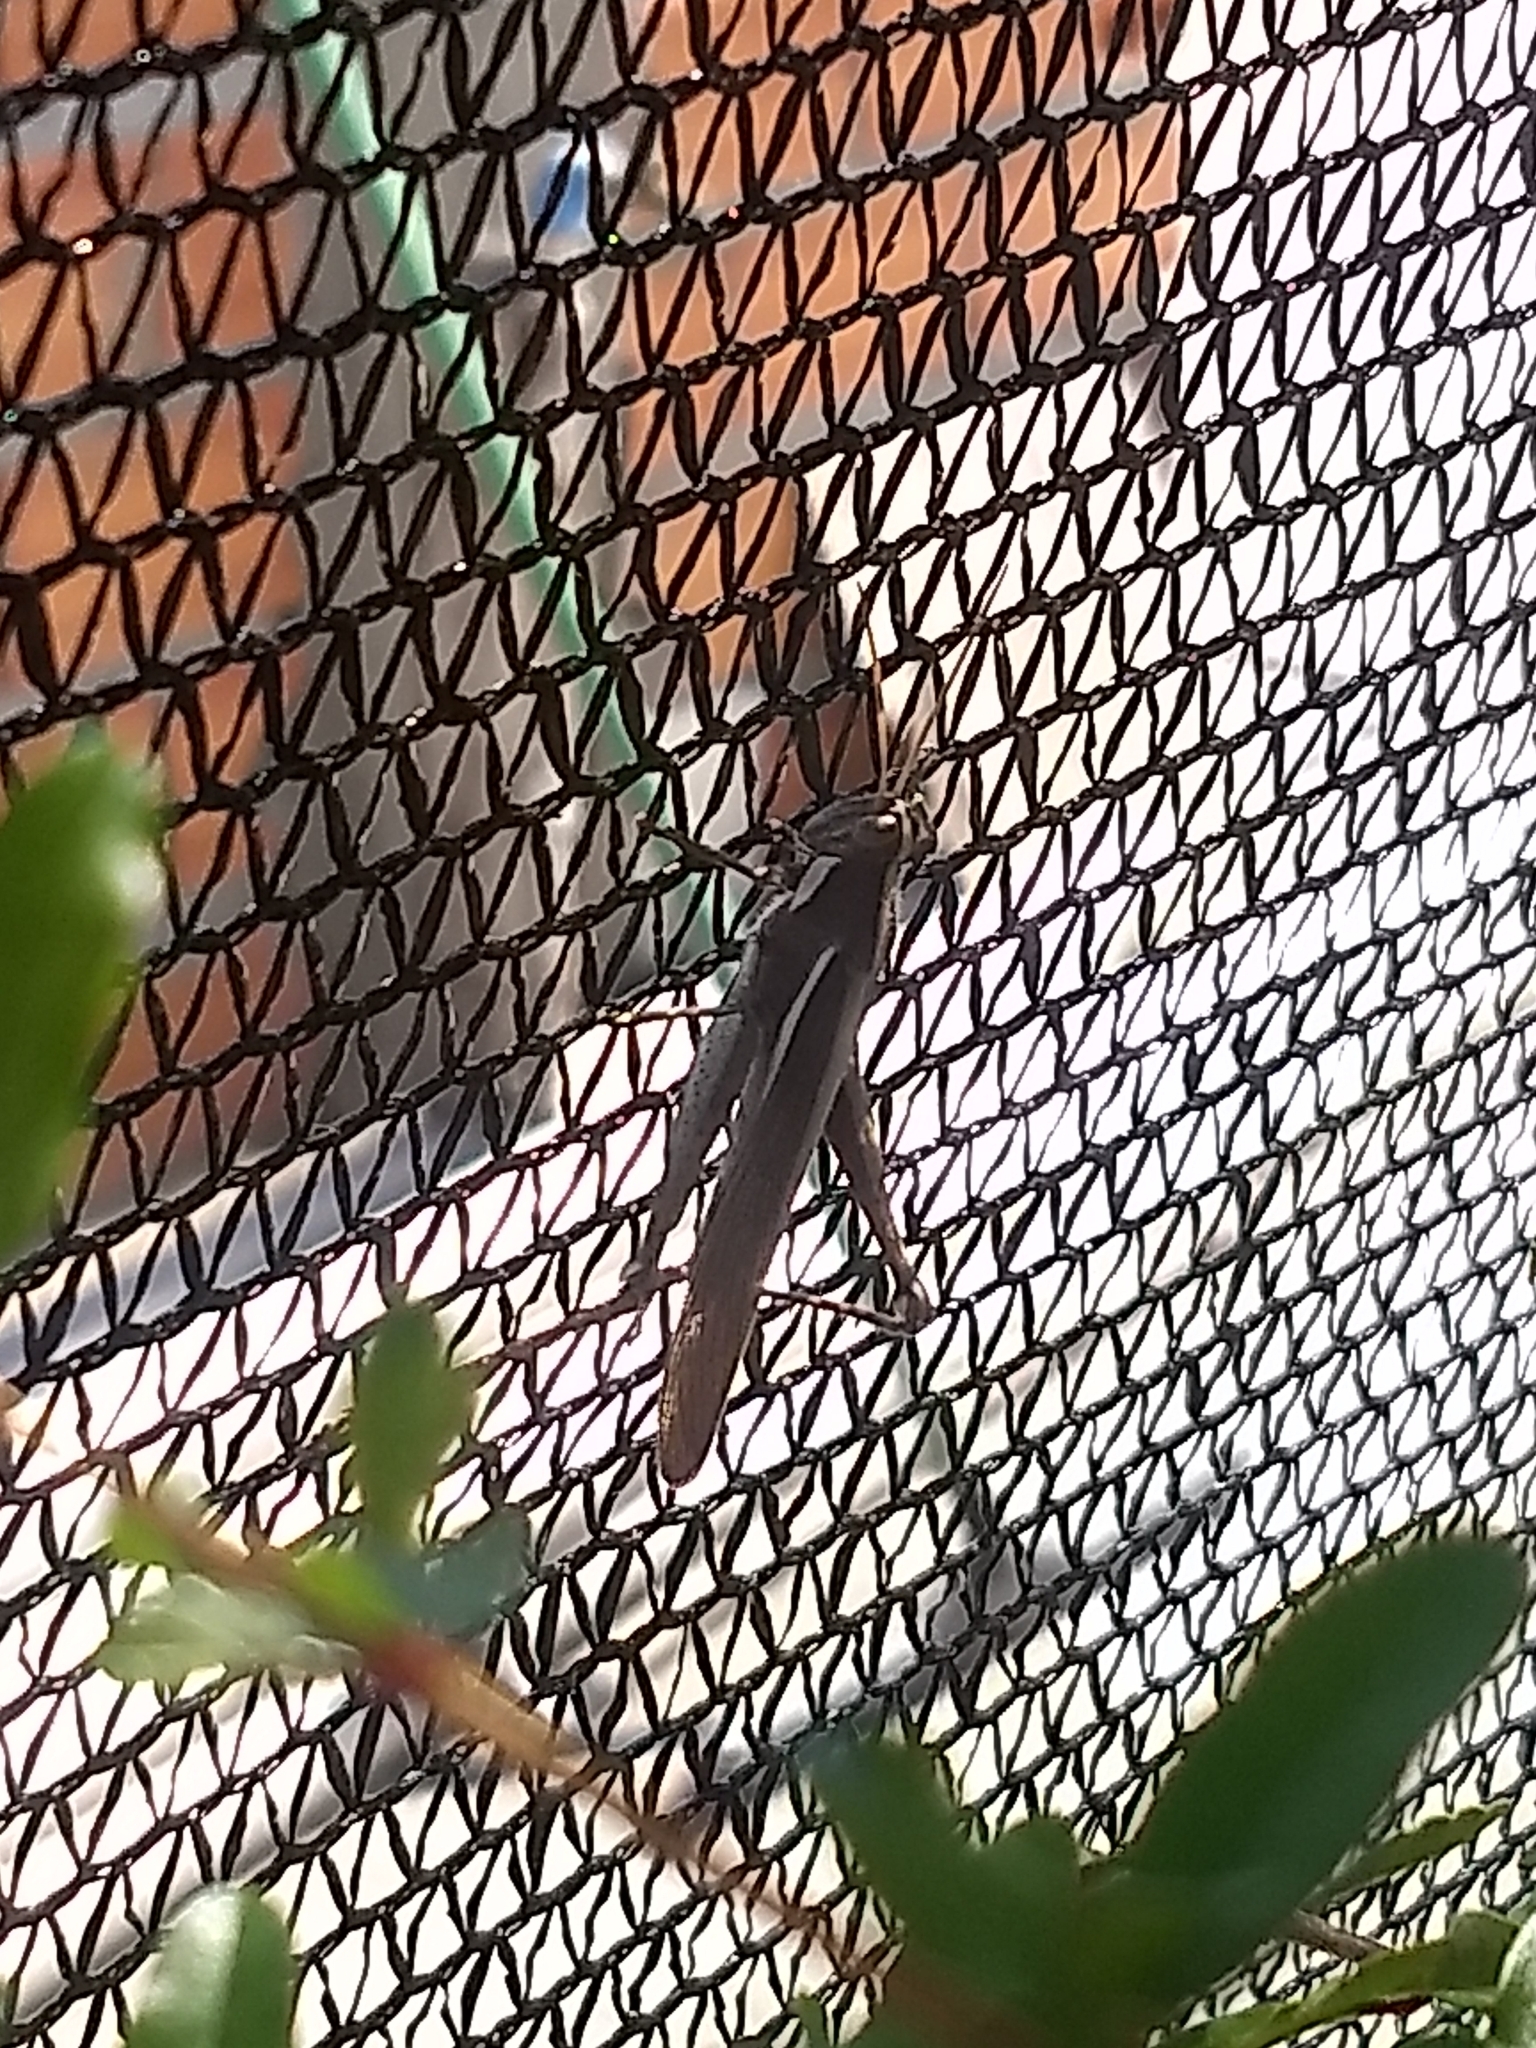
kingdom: Animalia
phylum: Arthropoda
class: Insecta
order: Orthoptera
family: Acrididae
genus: Schistocerca
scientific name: Schistocerca flavofasciata
